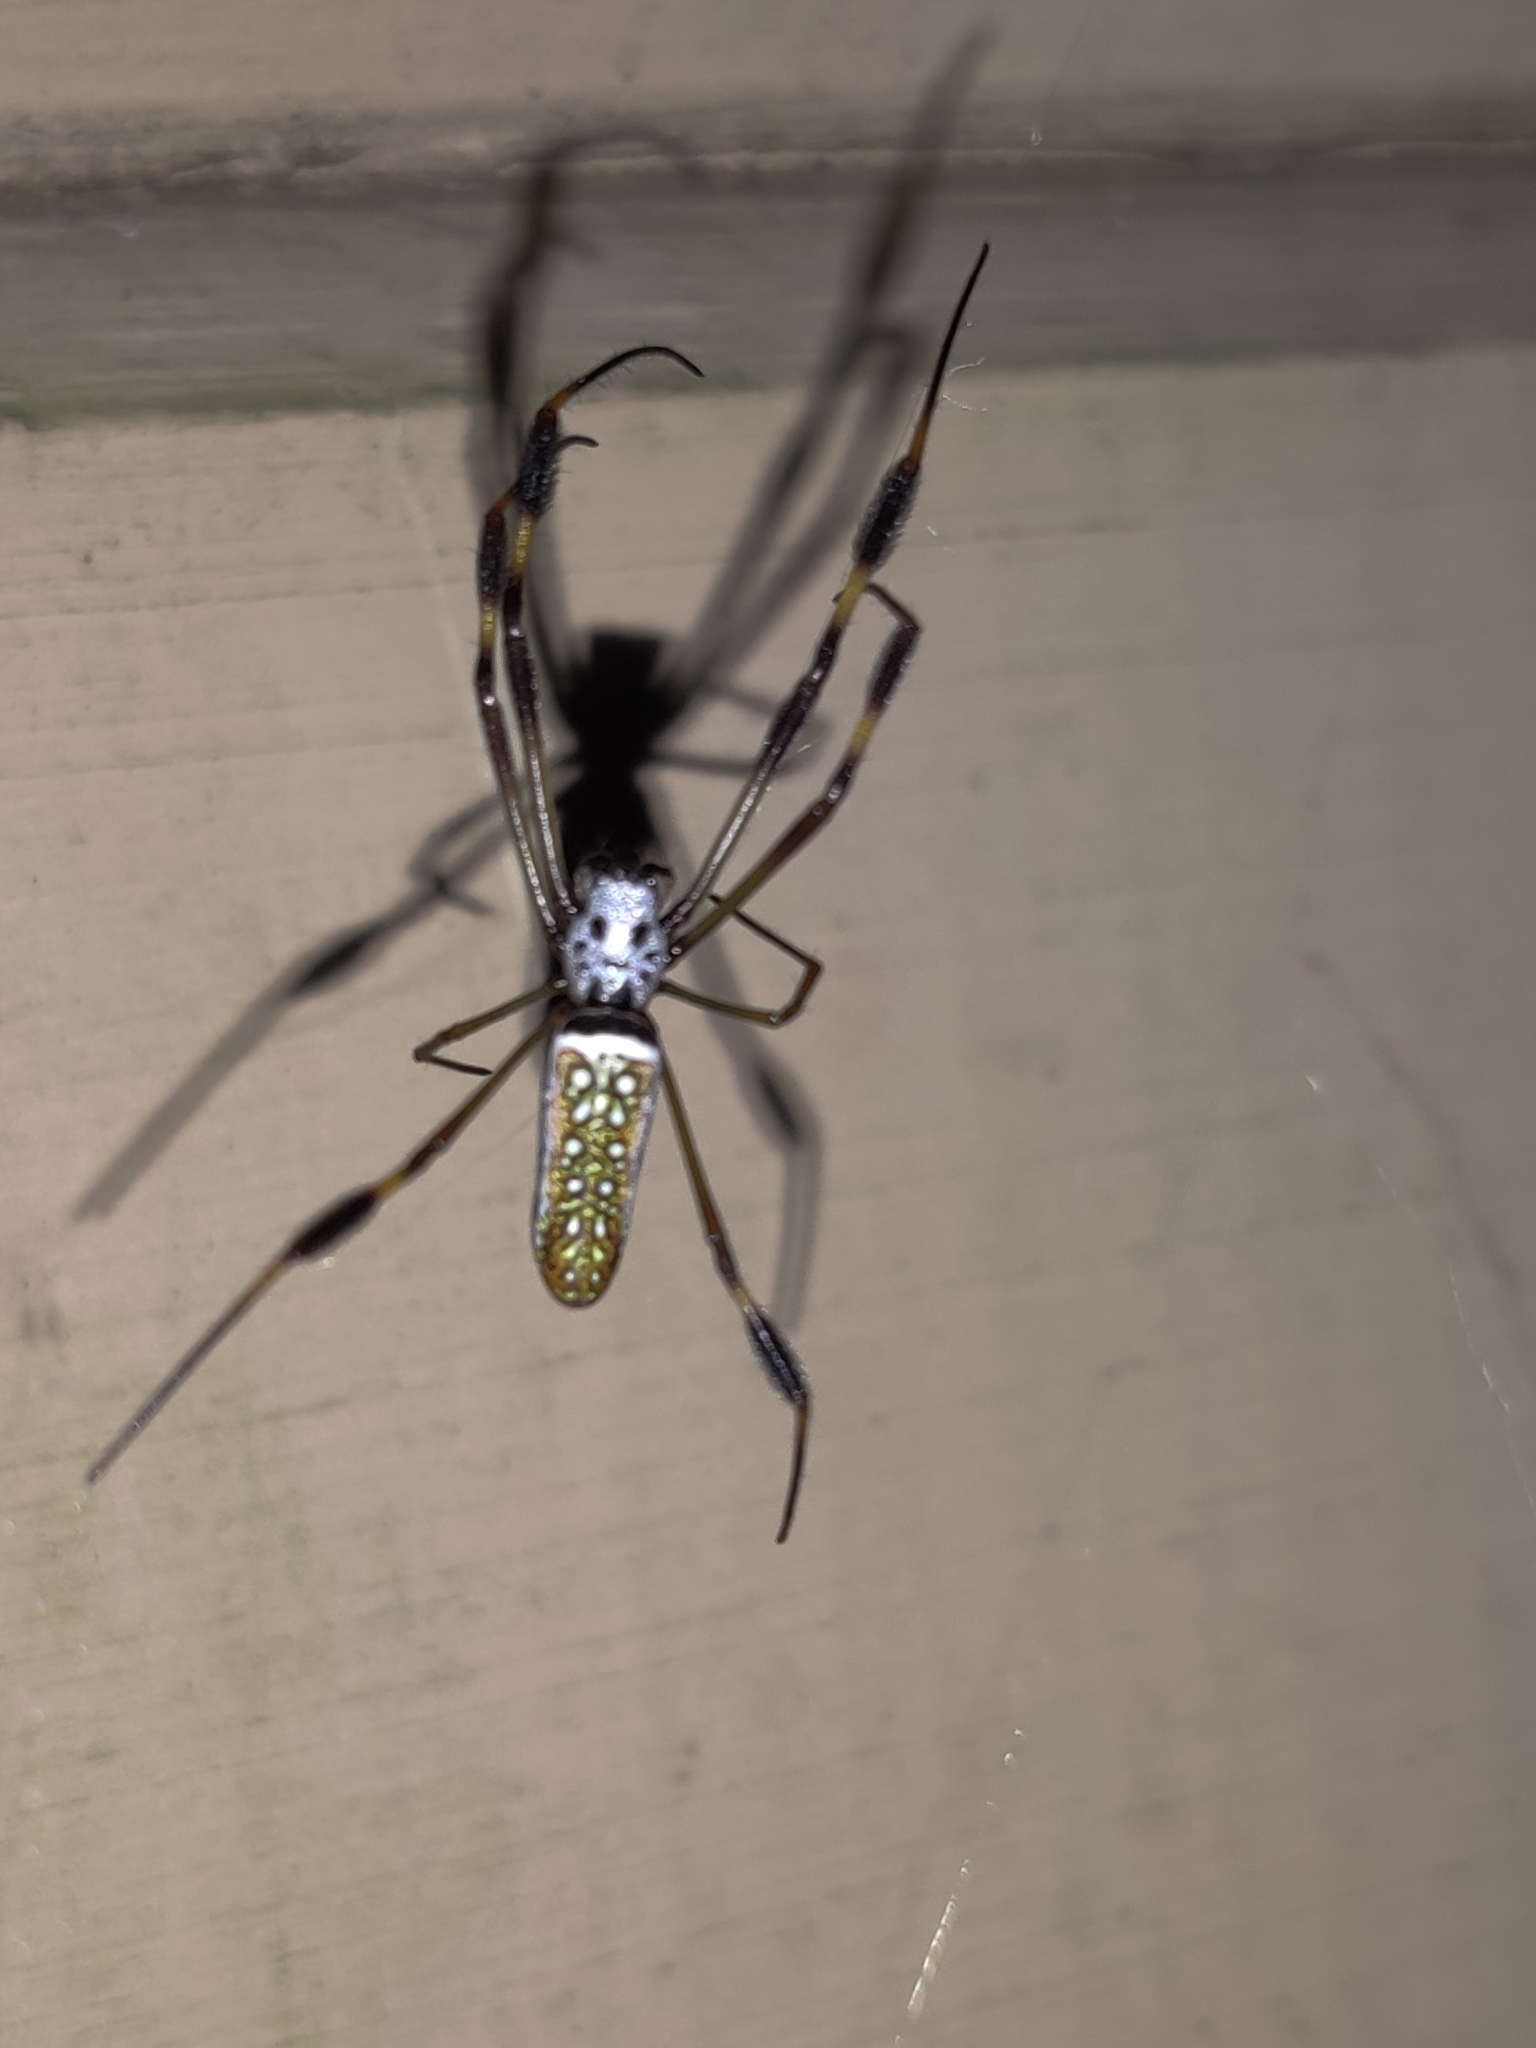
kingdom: Animalia
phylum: Arthropoda
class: Arachnida
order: Araneae
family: Araneidae
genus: Trichonephila
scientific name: Trichonephila clavipes
